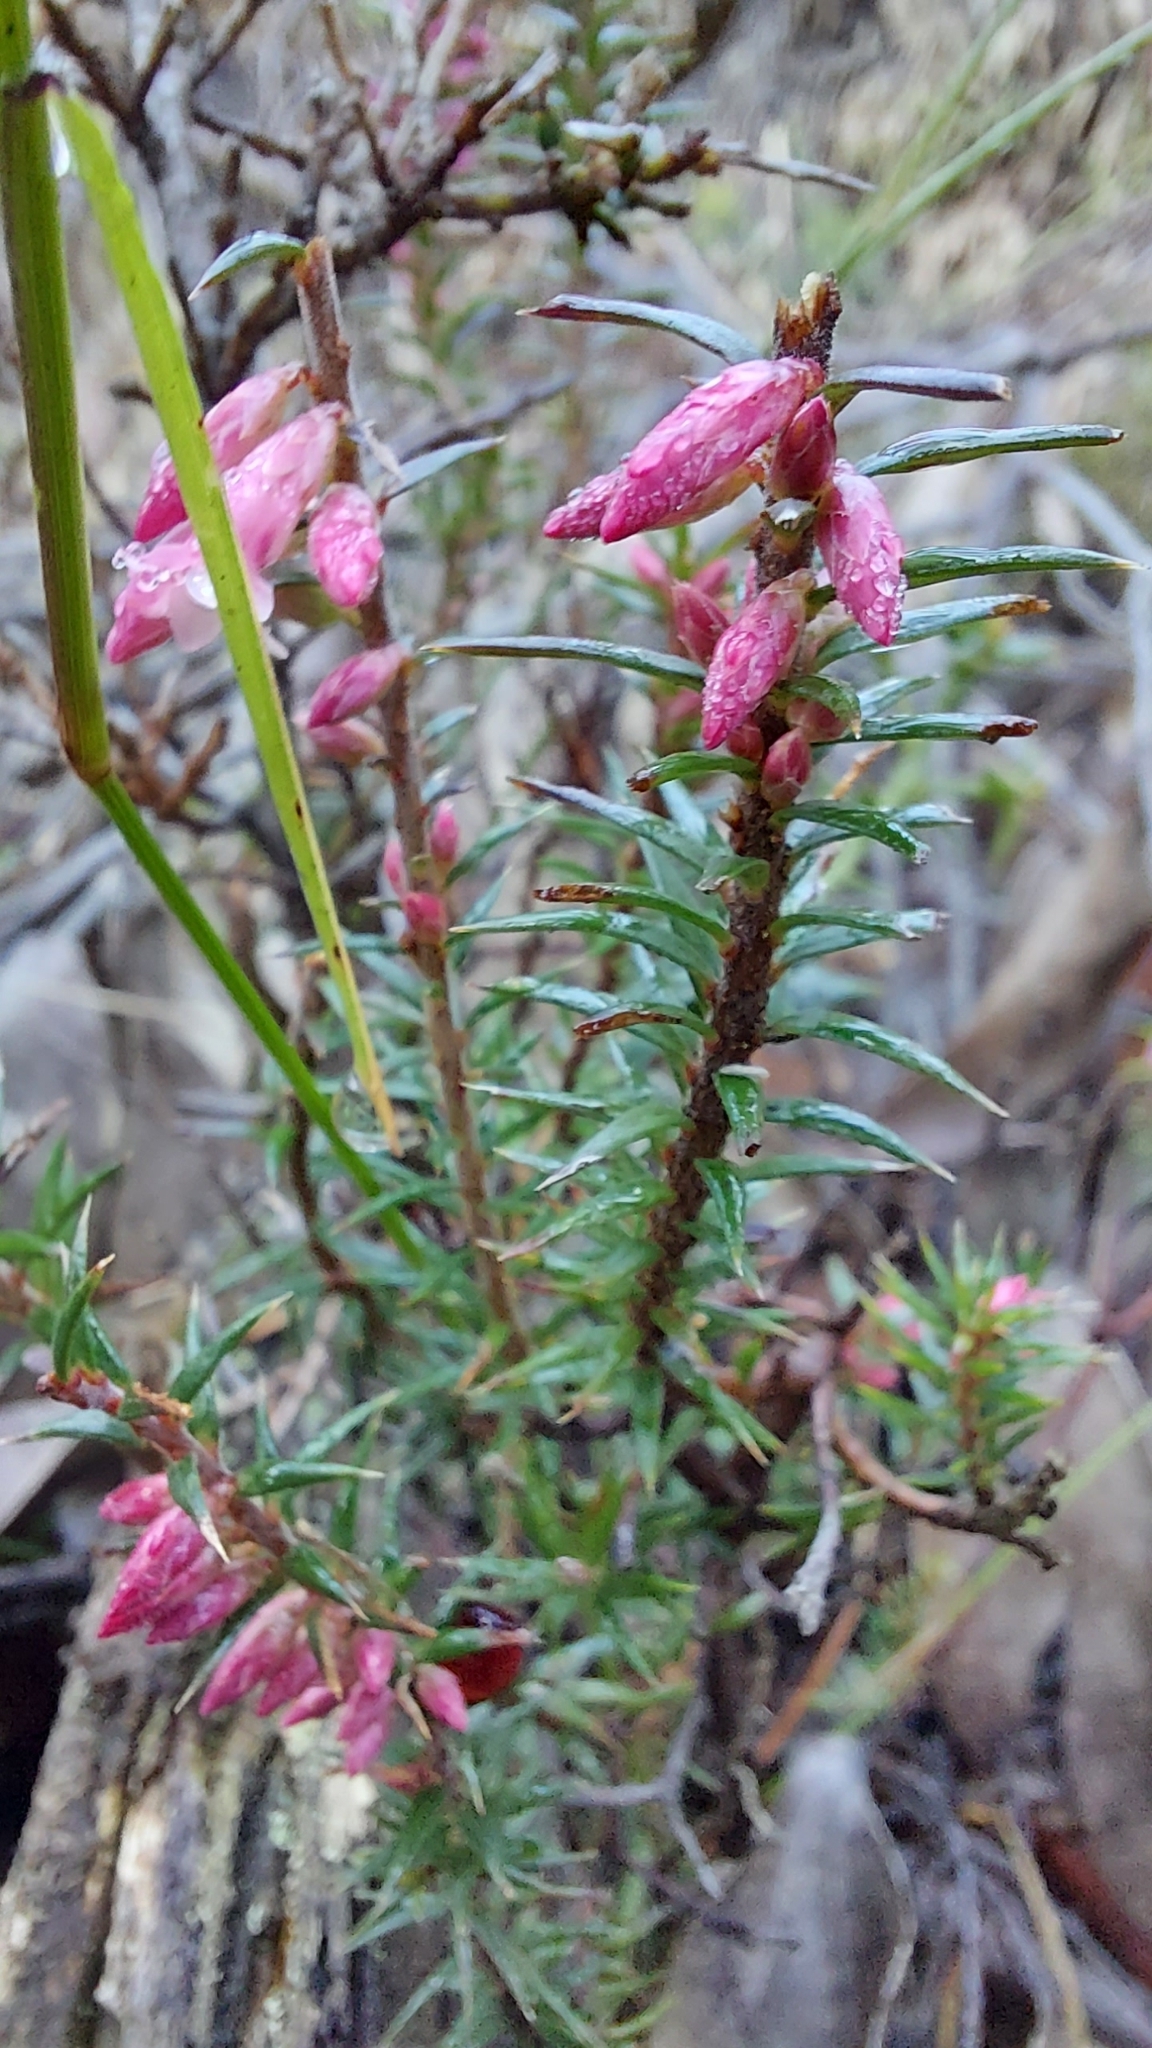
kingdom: Plantae
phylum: Tracheophyta
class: Magnoliopsida
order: Ericales
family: Ericaceae
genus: Epacris
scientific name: Epacris impressa
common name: Common-heath
